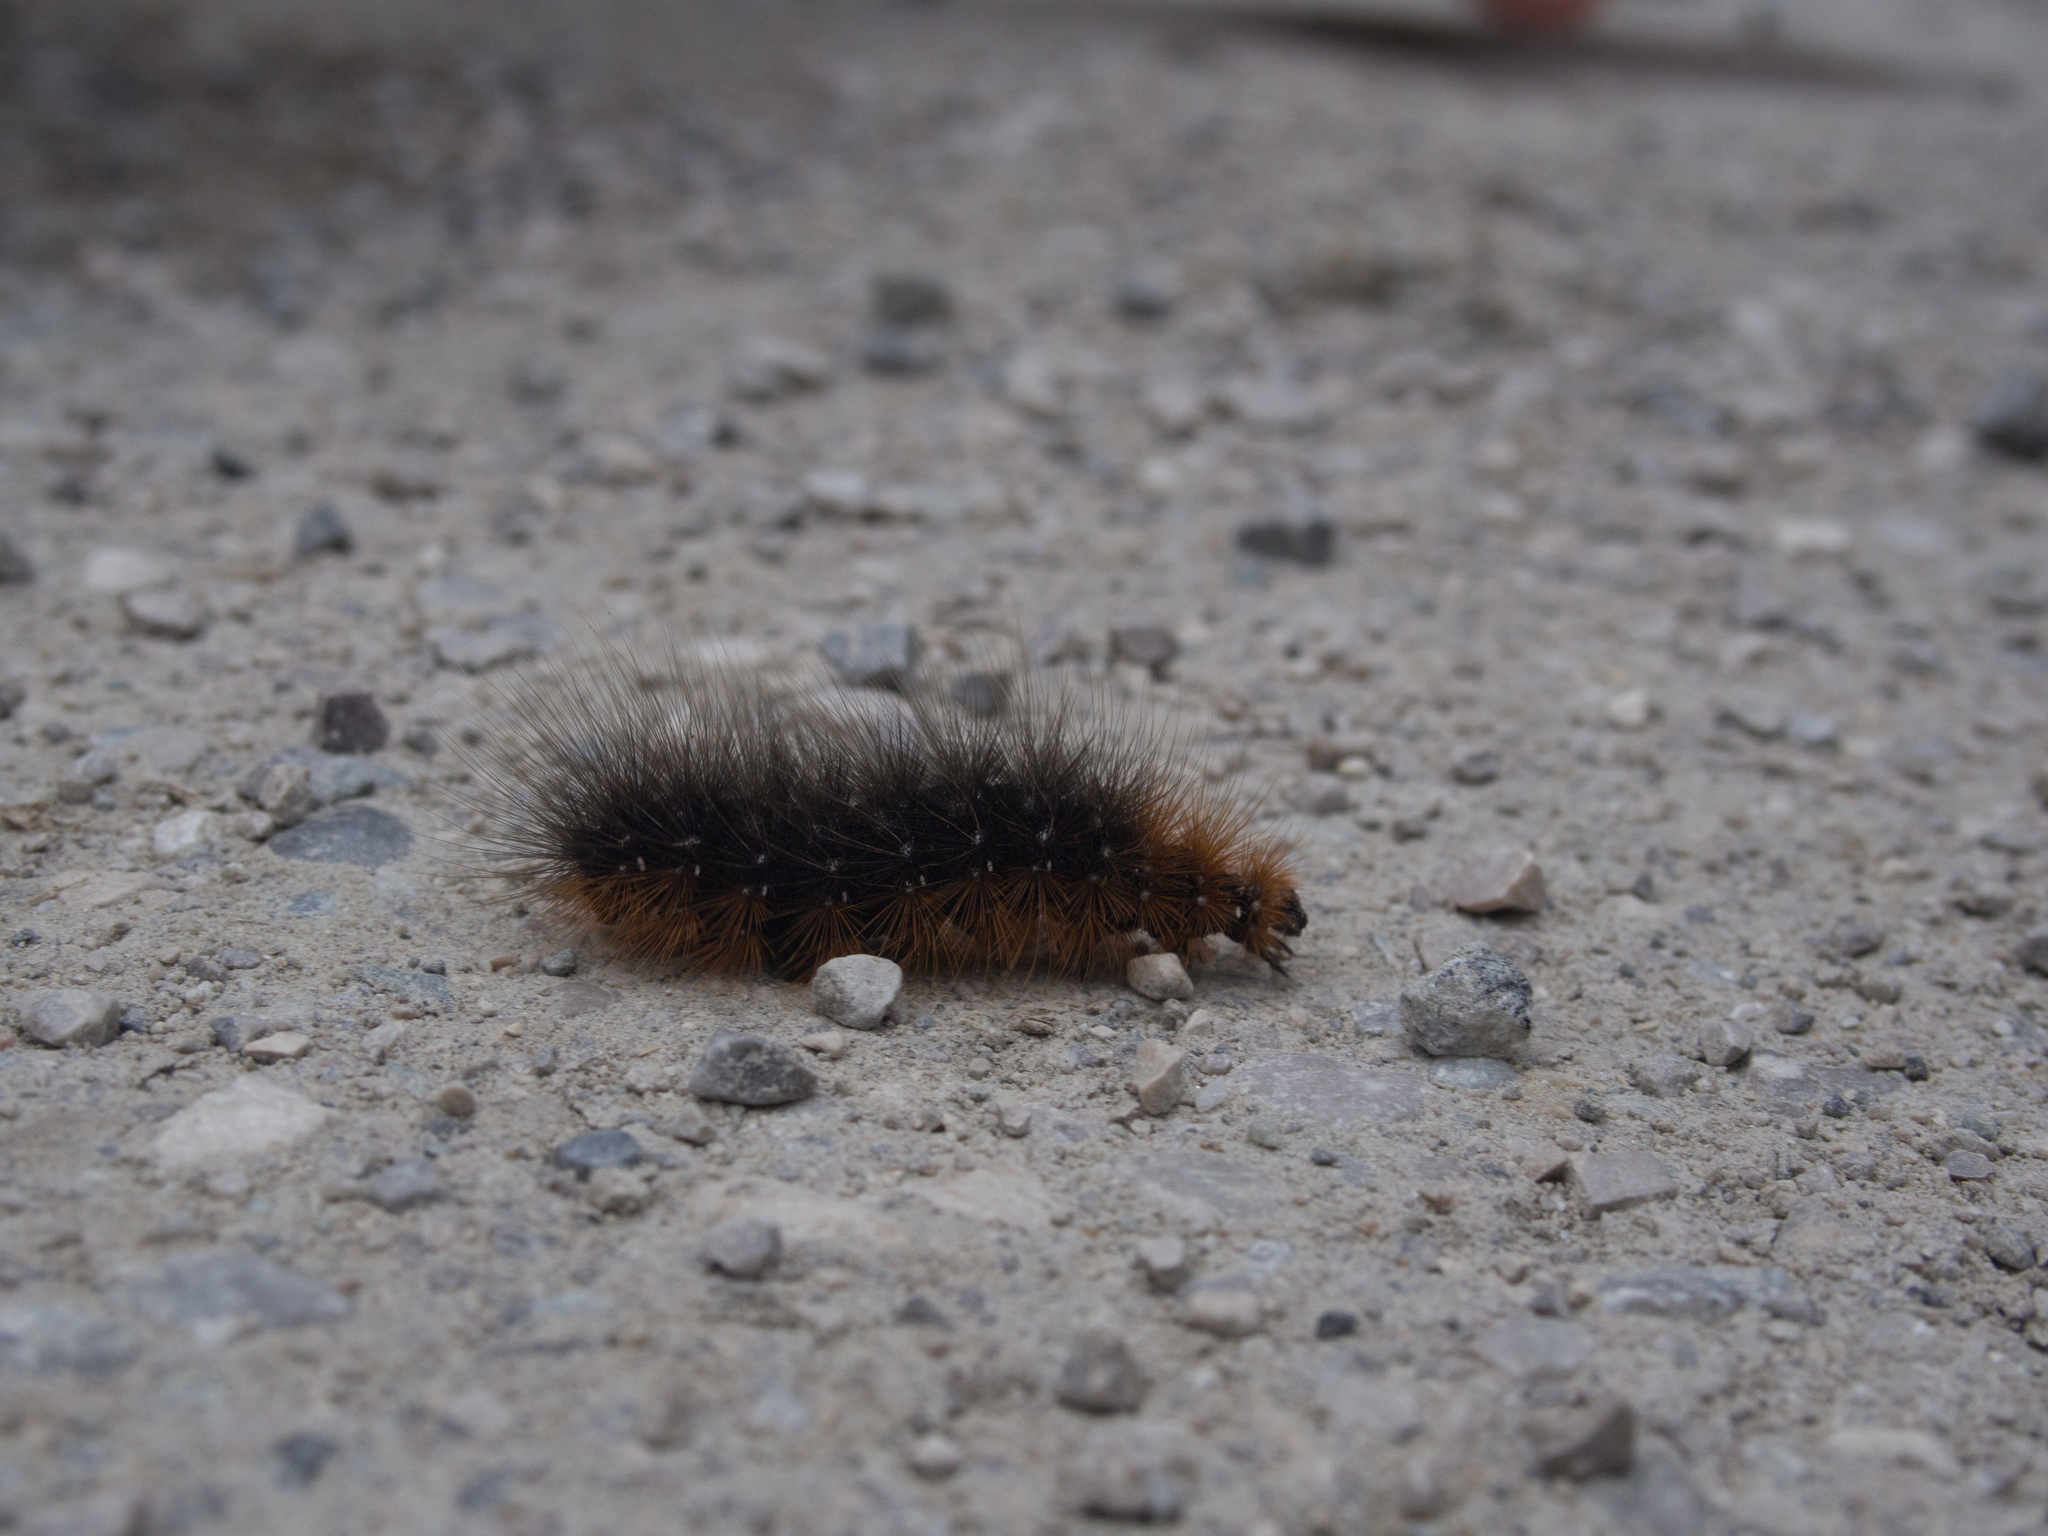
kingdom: Animalia
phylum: Arthropoda
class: Insecta
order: Lepidoptera
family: Erebidae
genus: Arctia
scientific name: Arctia caja
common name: Garden tiger
